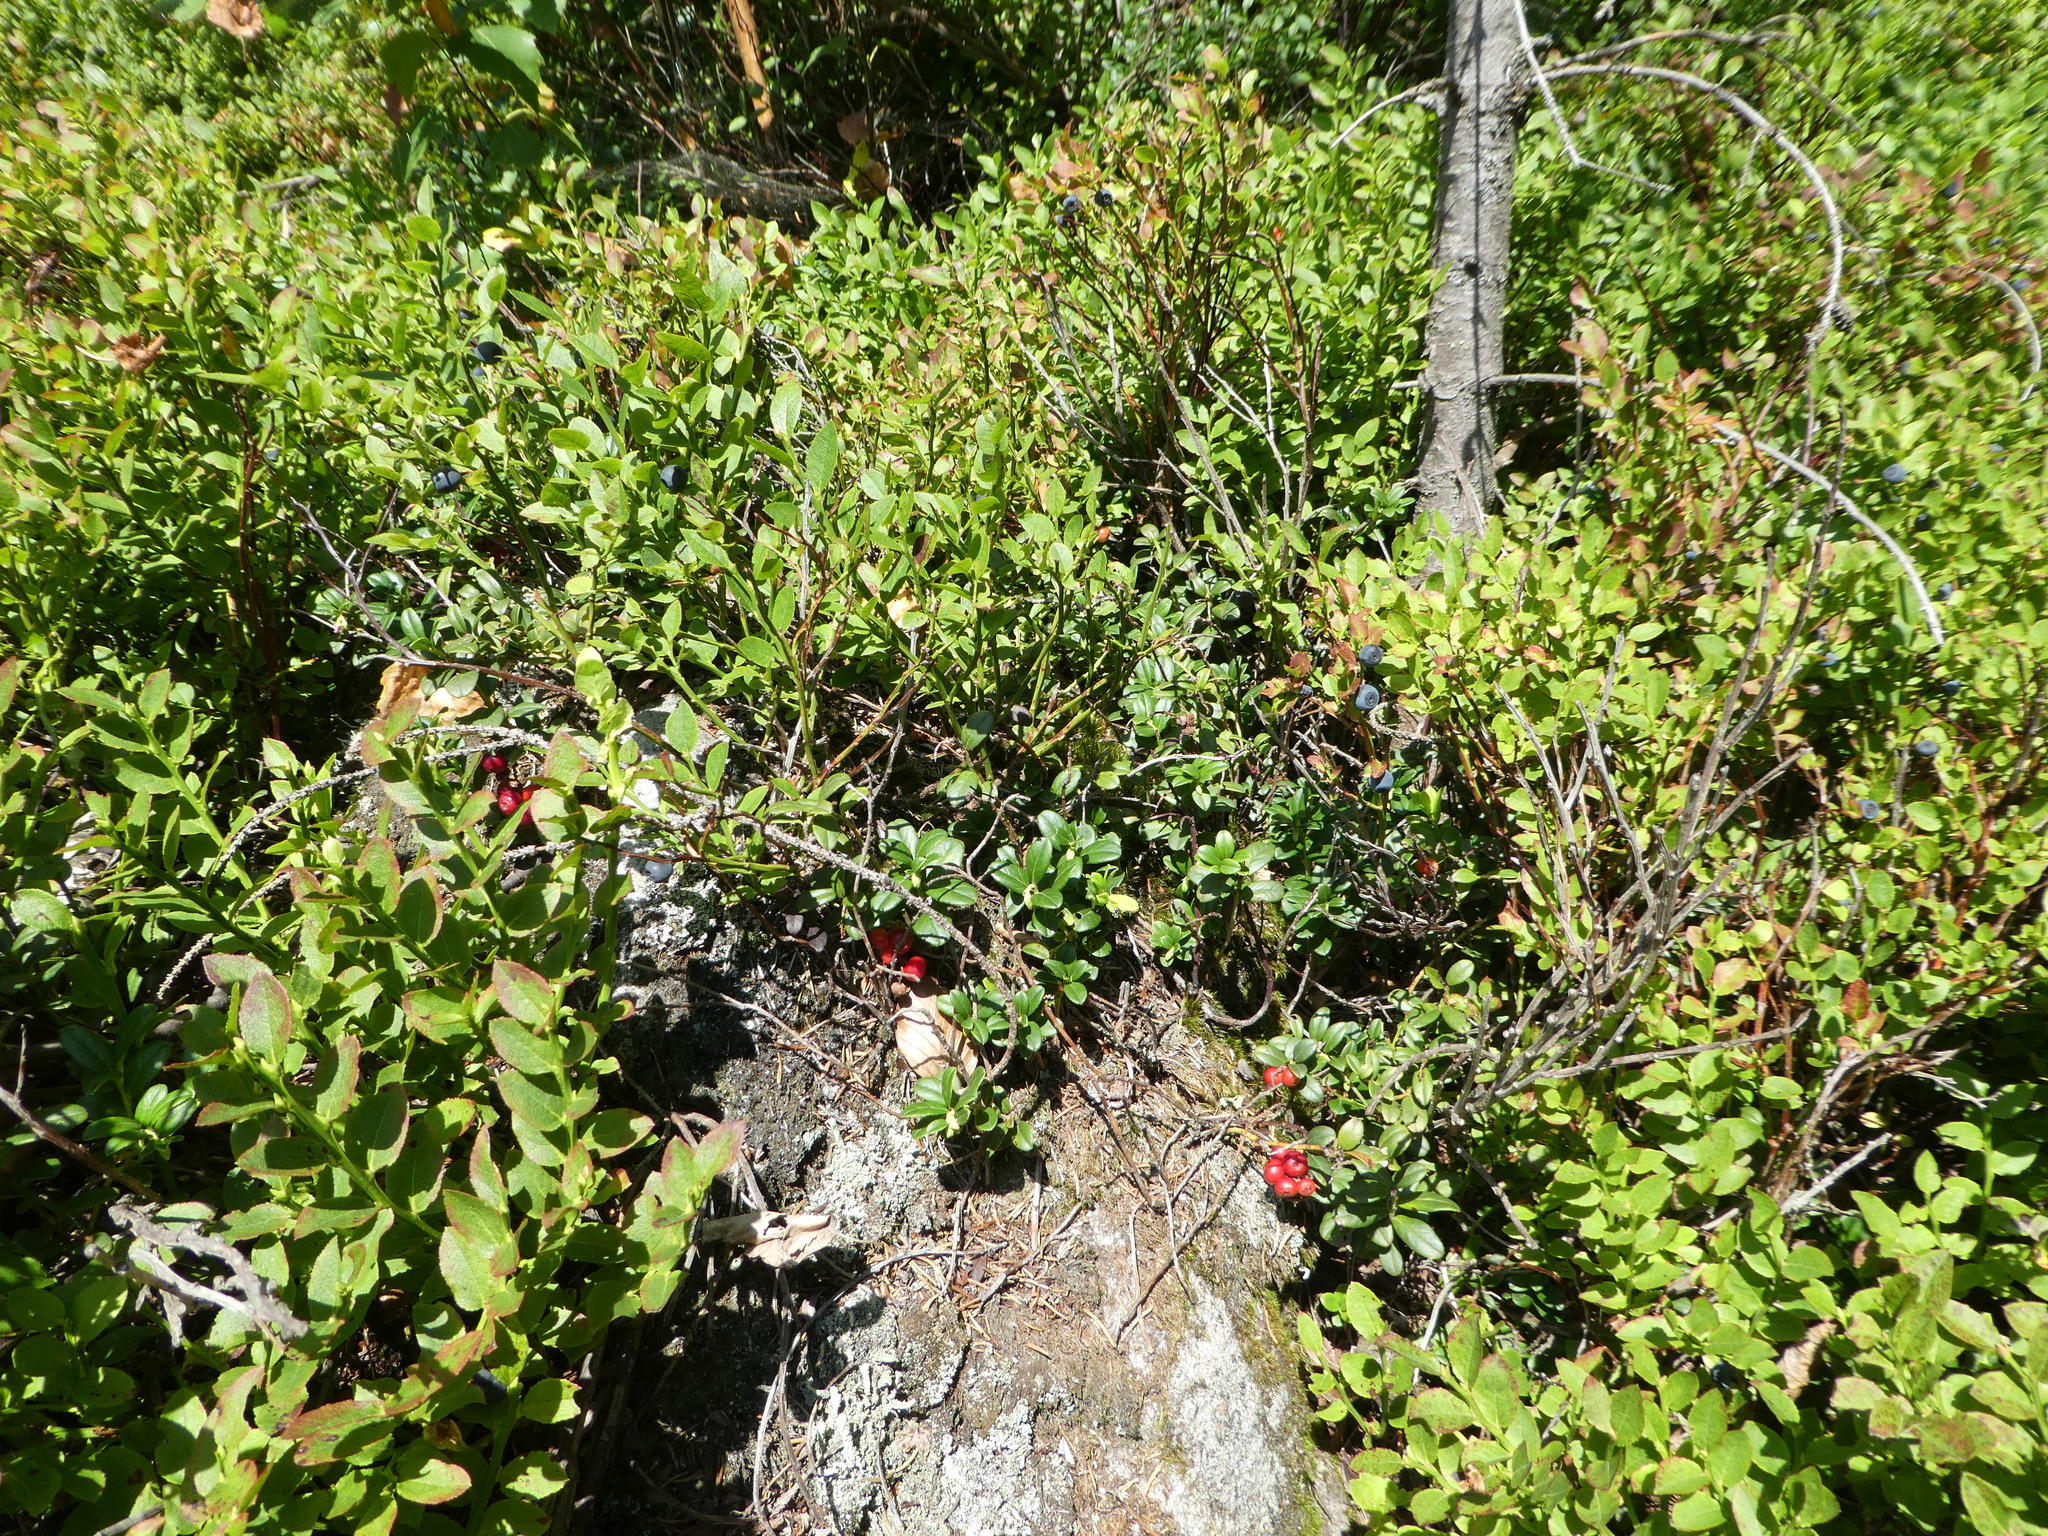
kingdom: Plantae
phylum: Tracheophyta
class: Magnoliopsida
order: Ericales
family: Ericaceae
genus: Vaccinium
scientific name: Vaccinium vitis-idaea
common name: Cowberry
